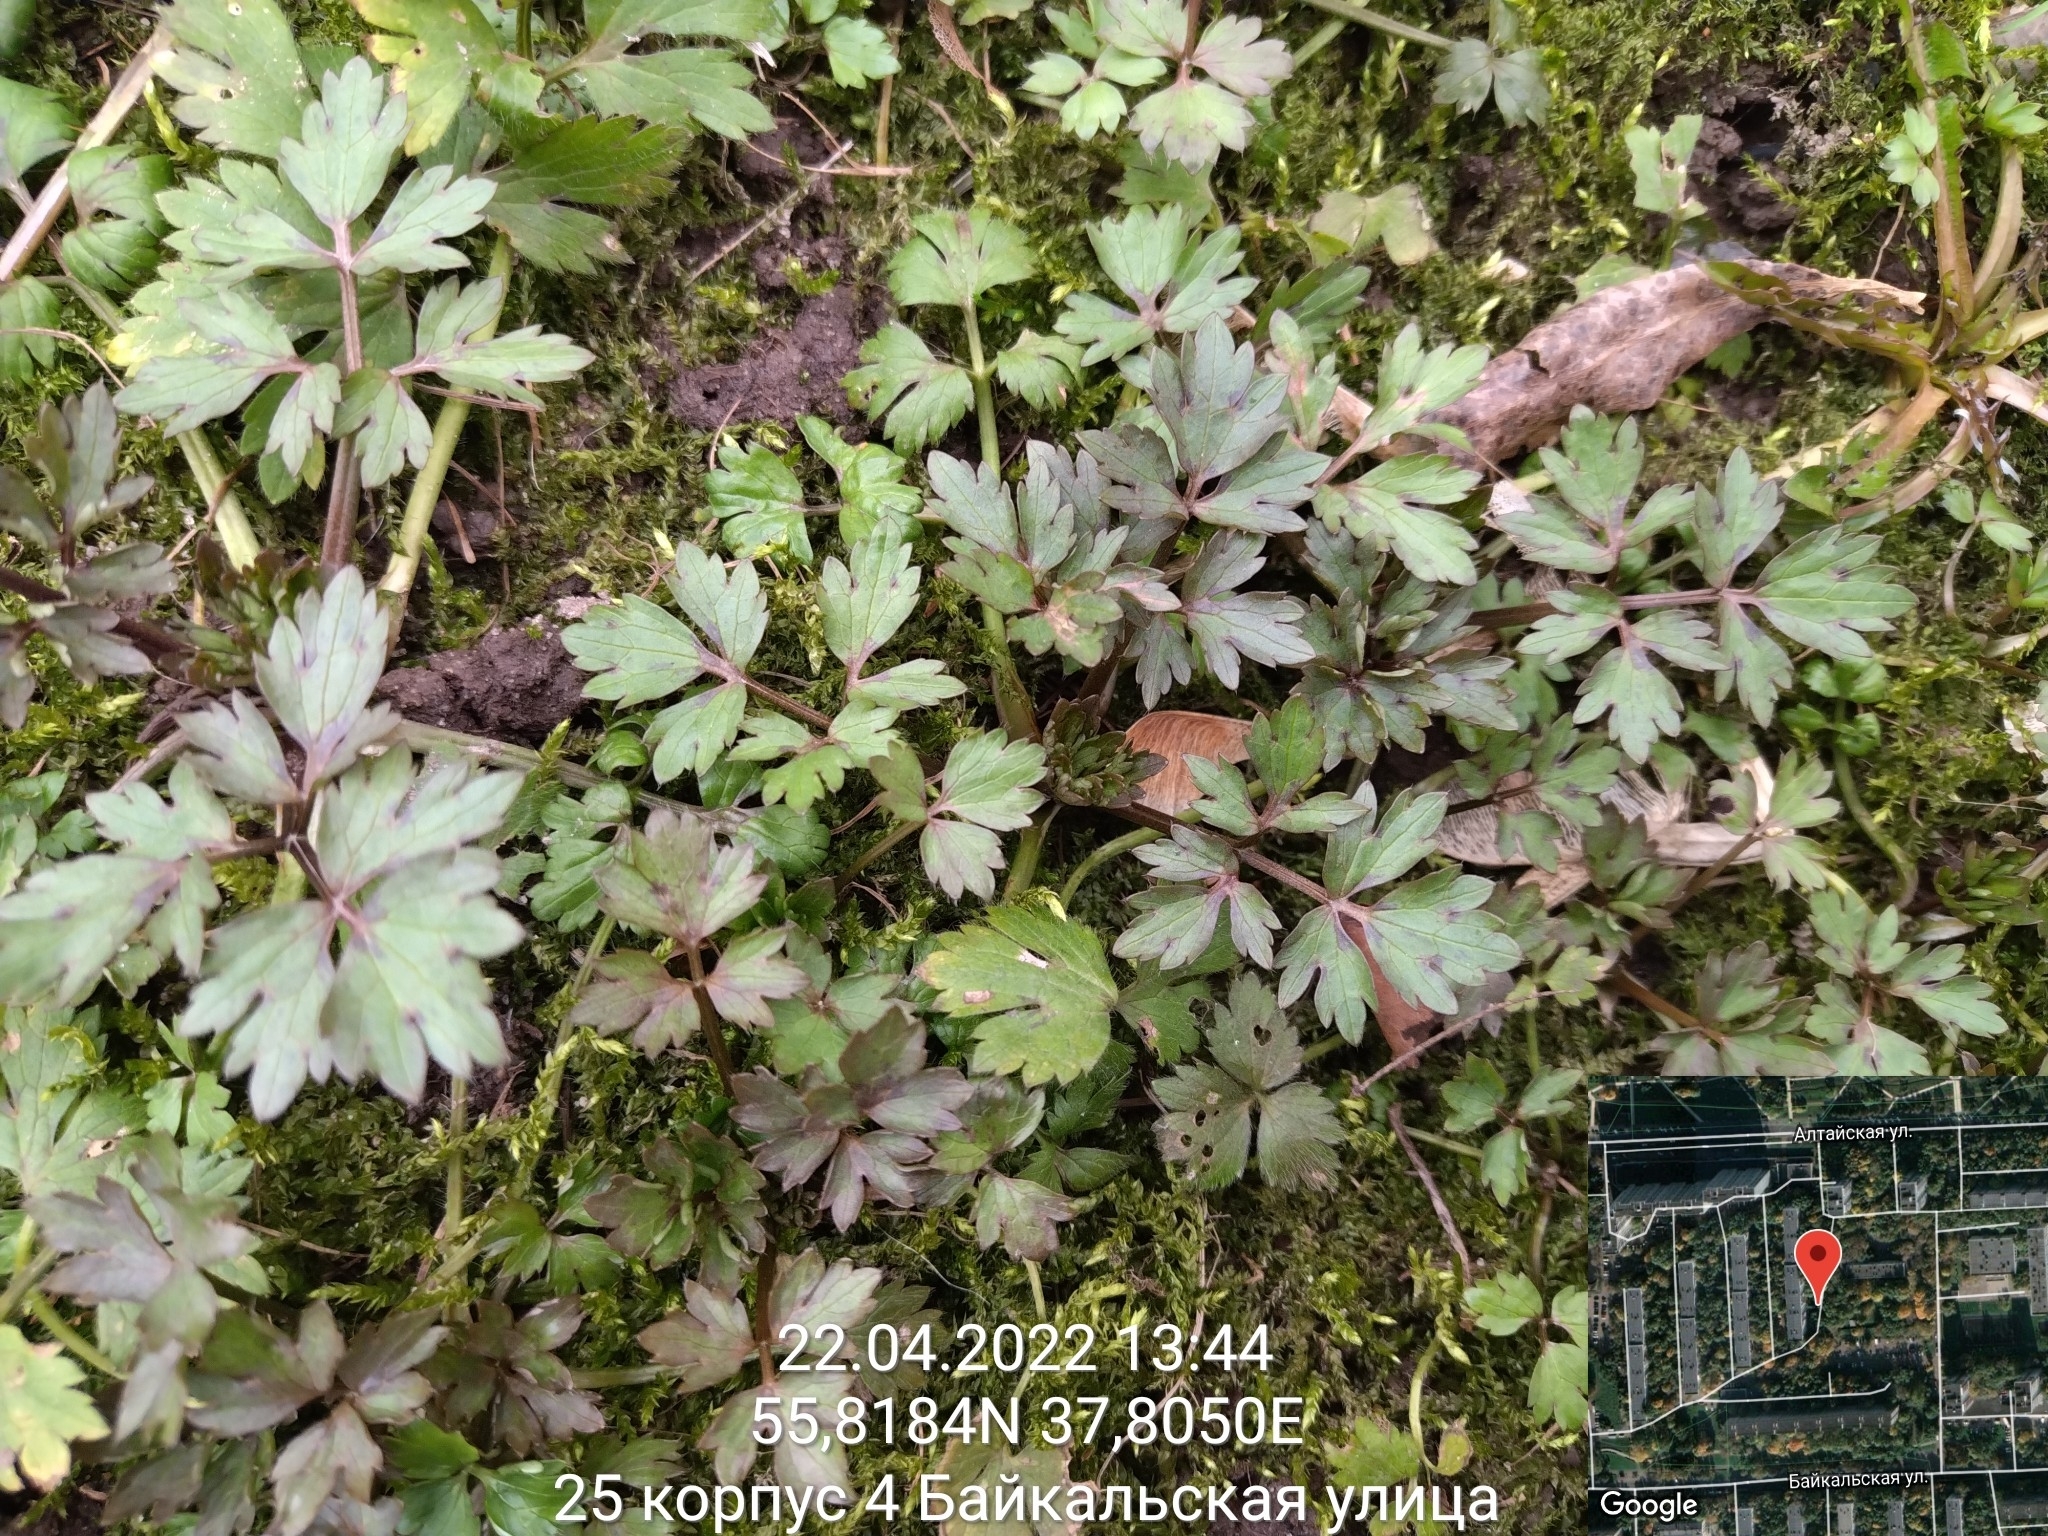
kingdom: Plantae
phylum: Tracheophyta
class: Magnoliopsida
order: Ranunculales
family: Ranunculaceae
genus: Ranunculus
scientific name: Ranunculus repens
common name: Creeping buttercup
